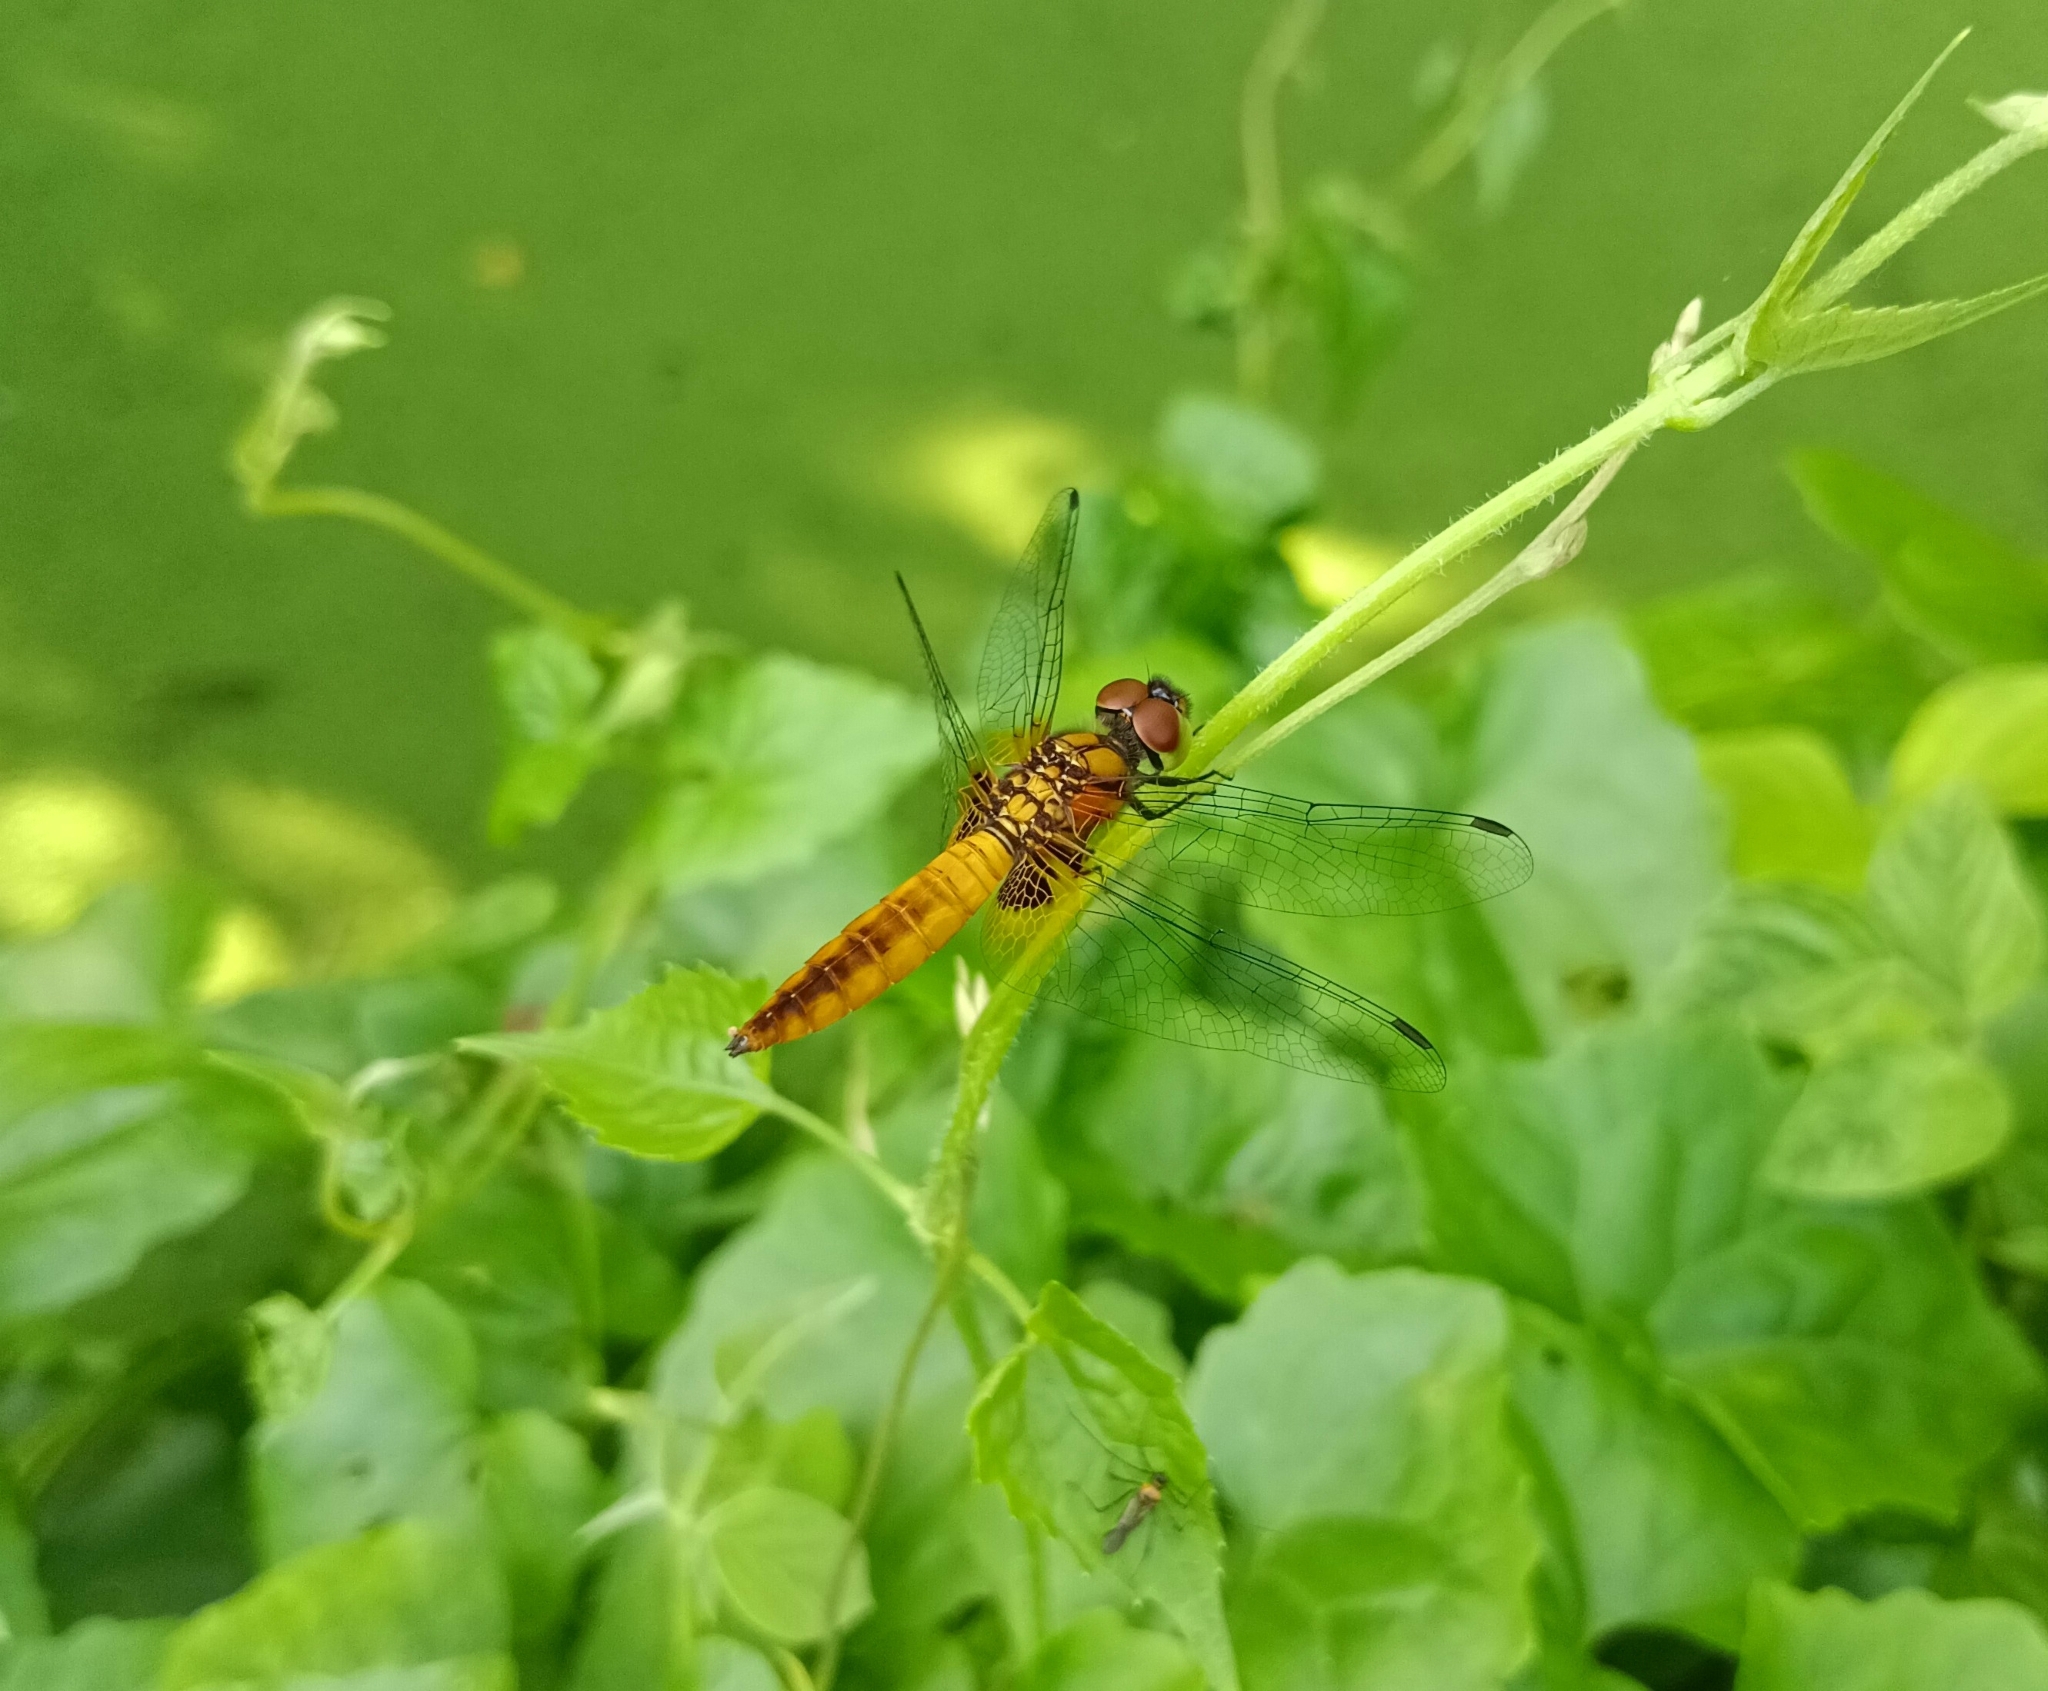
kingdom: Animalia
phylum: Arthropoda
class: Insecta
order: Odonata
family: Libellulidae
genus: Aethriamanta
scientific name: Aethriamanta brevipennis
